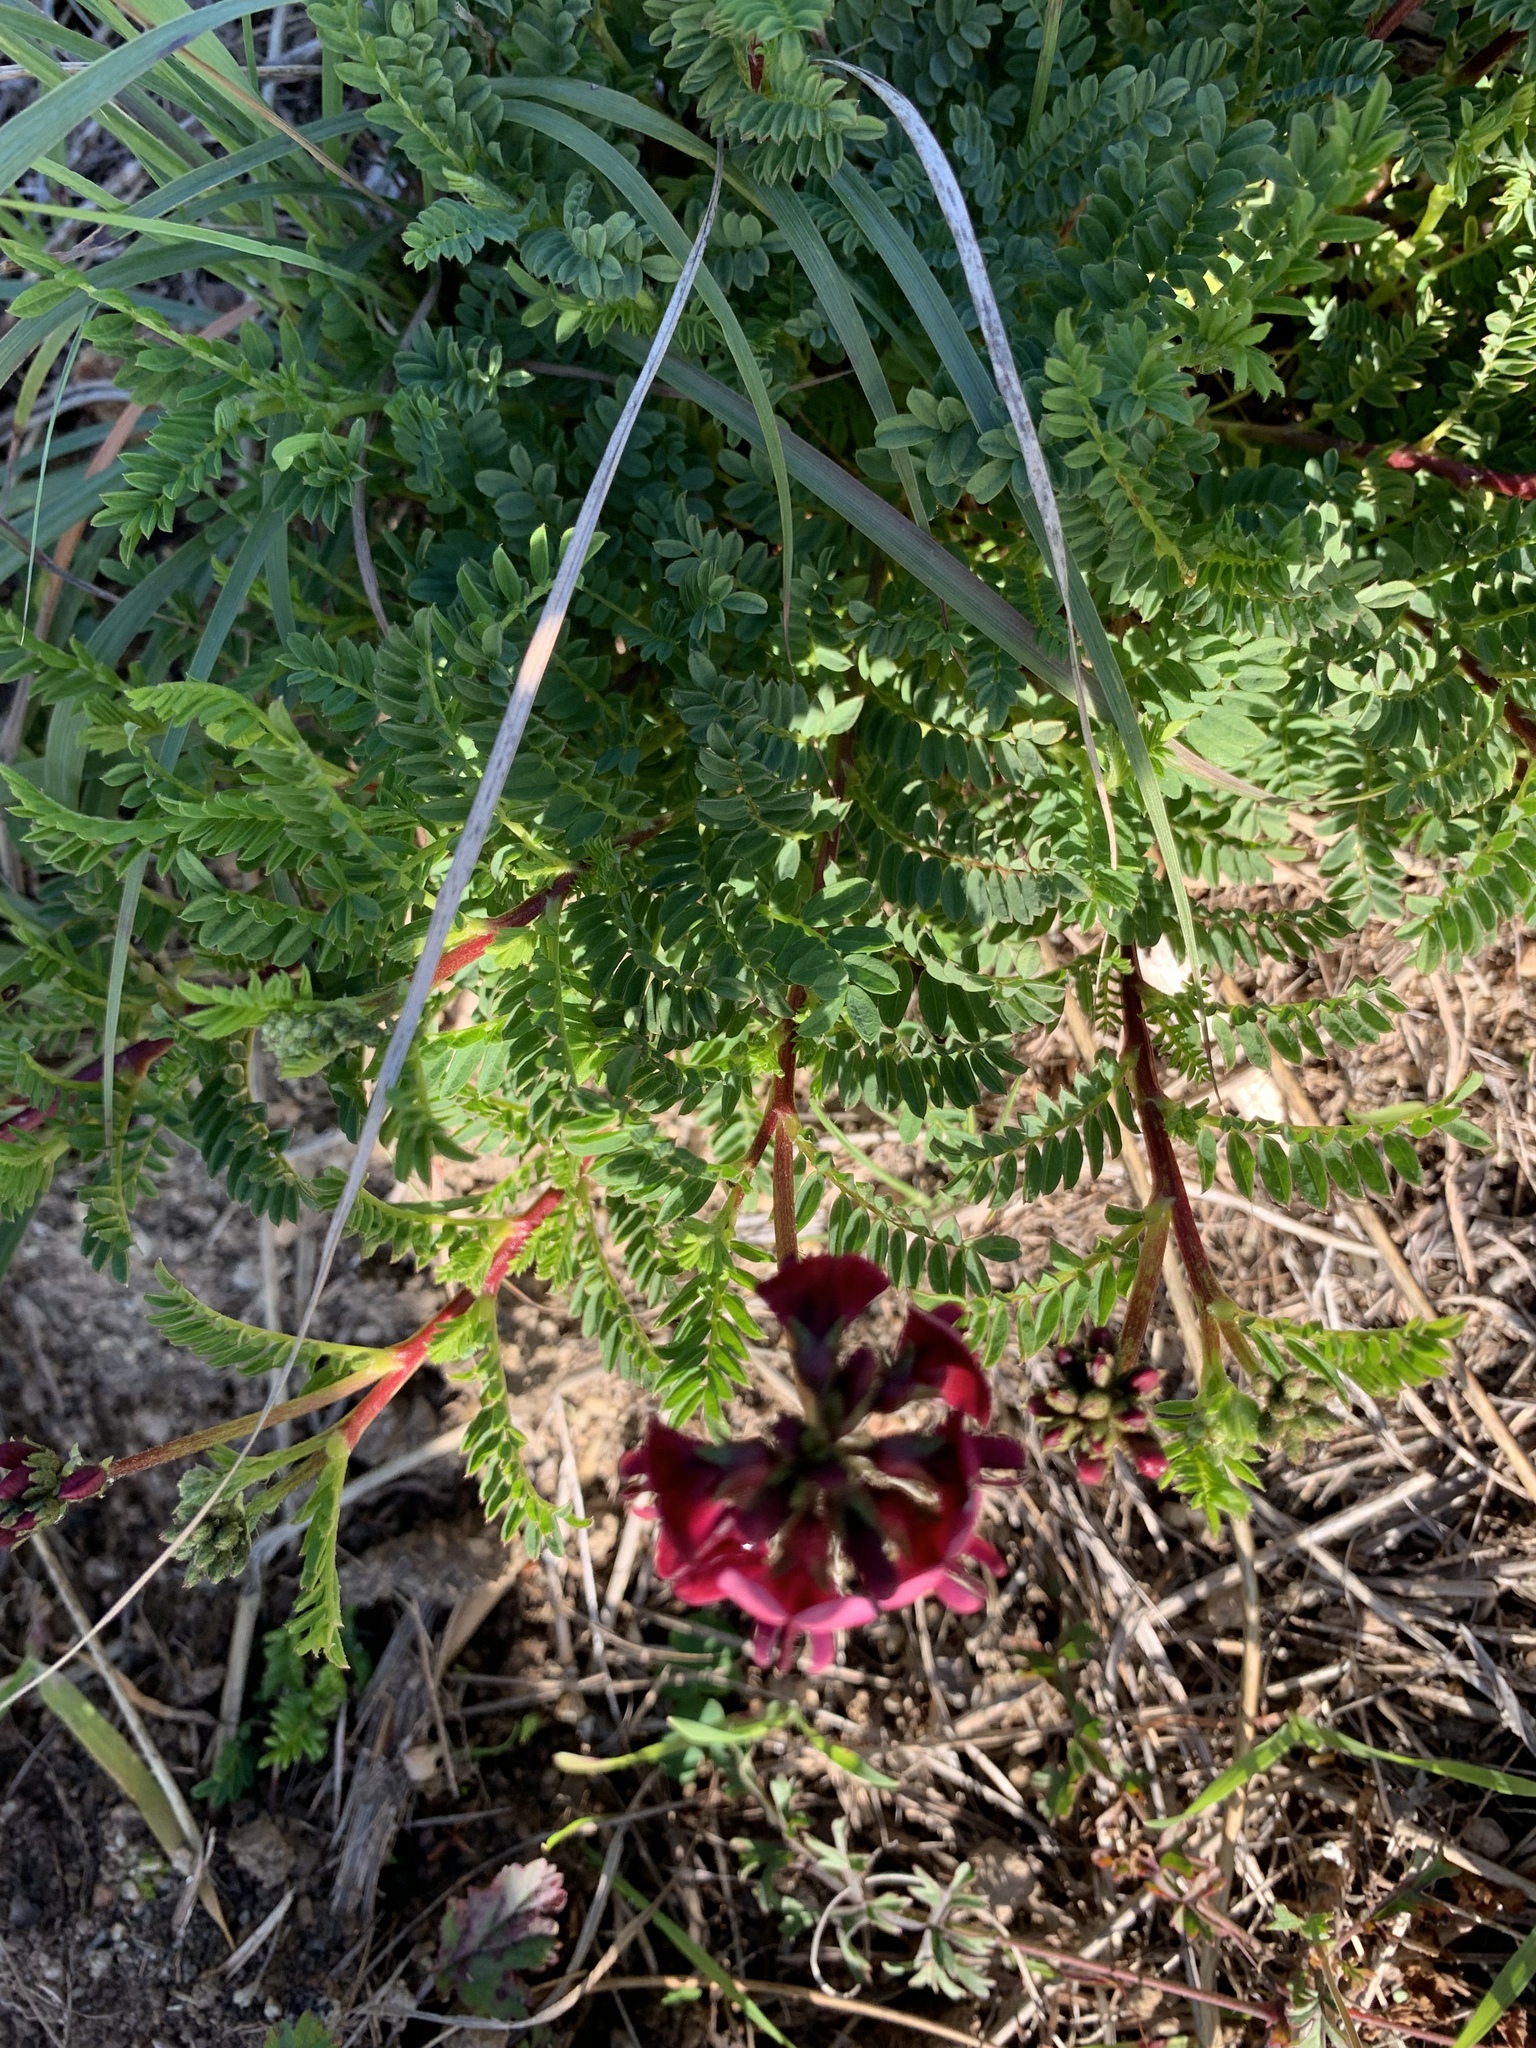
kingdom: Plantae
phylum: Tracheophyta
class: Magnoliopsida
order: Fabales
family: Fabaceae
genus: Lessertia
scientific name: Lessertia capensis
